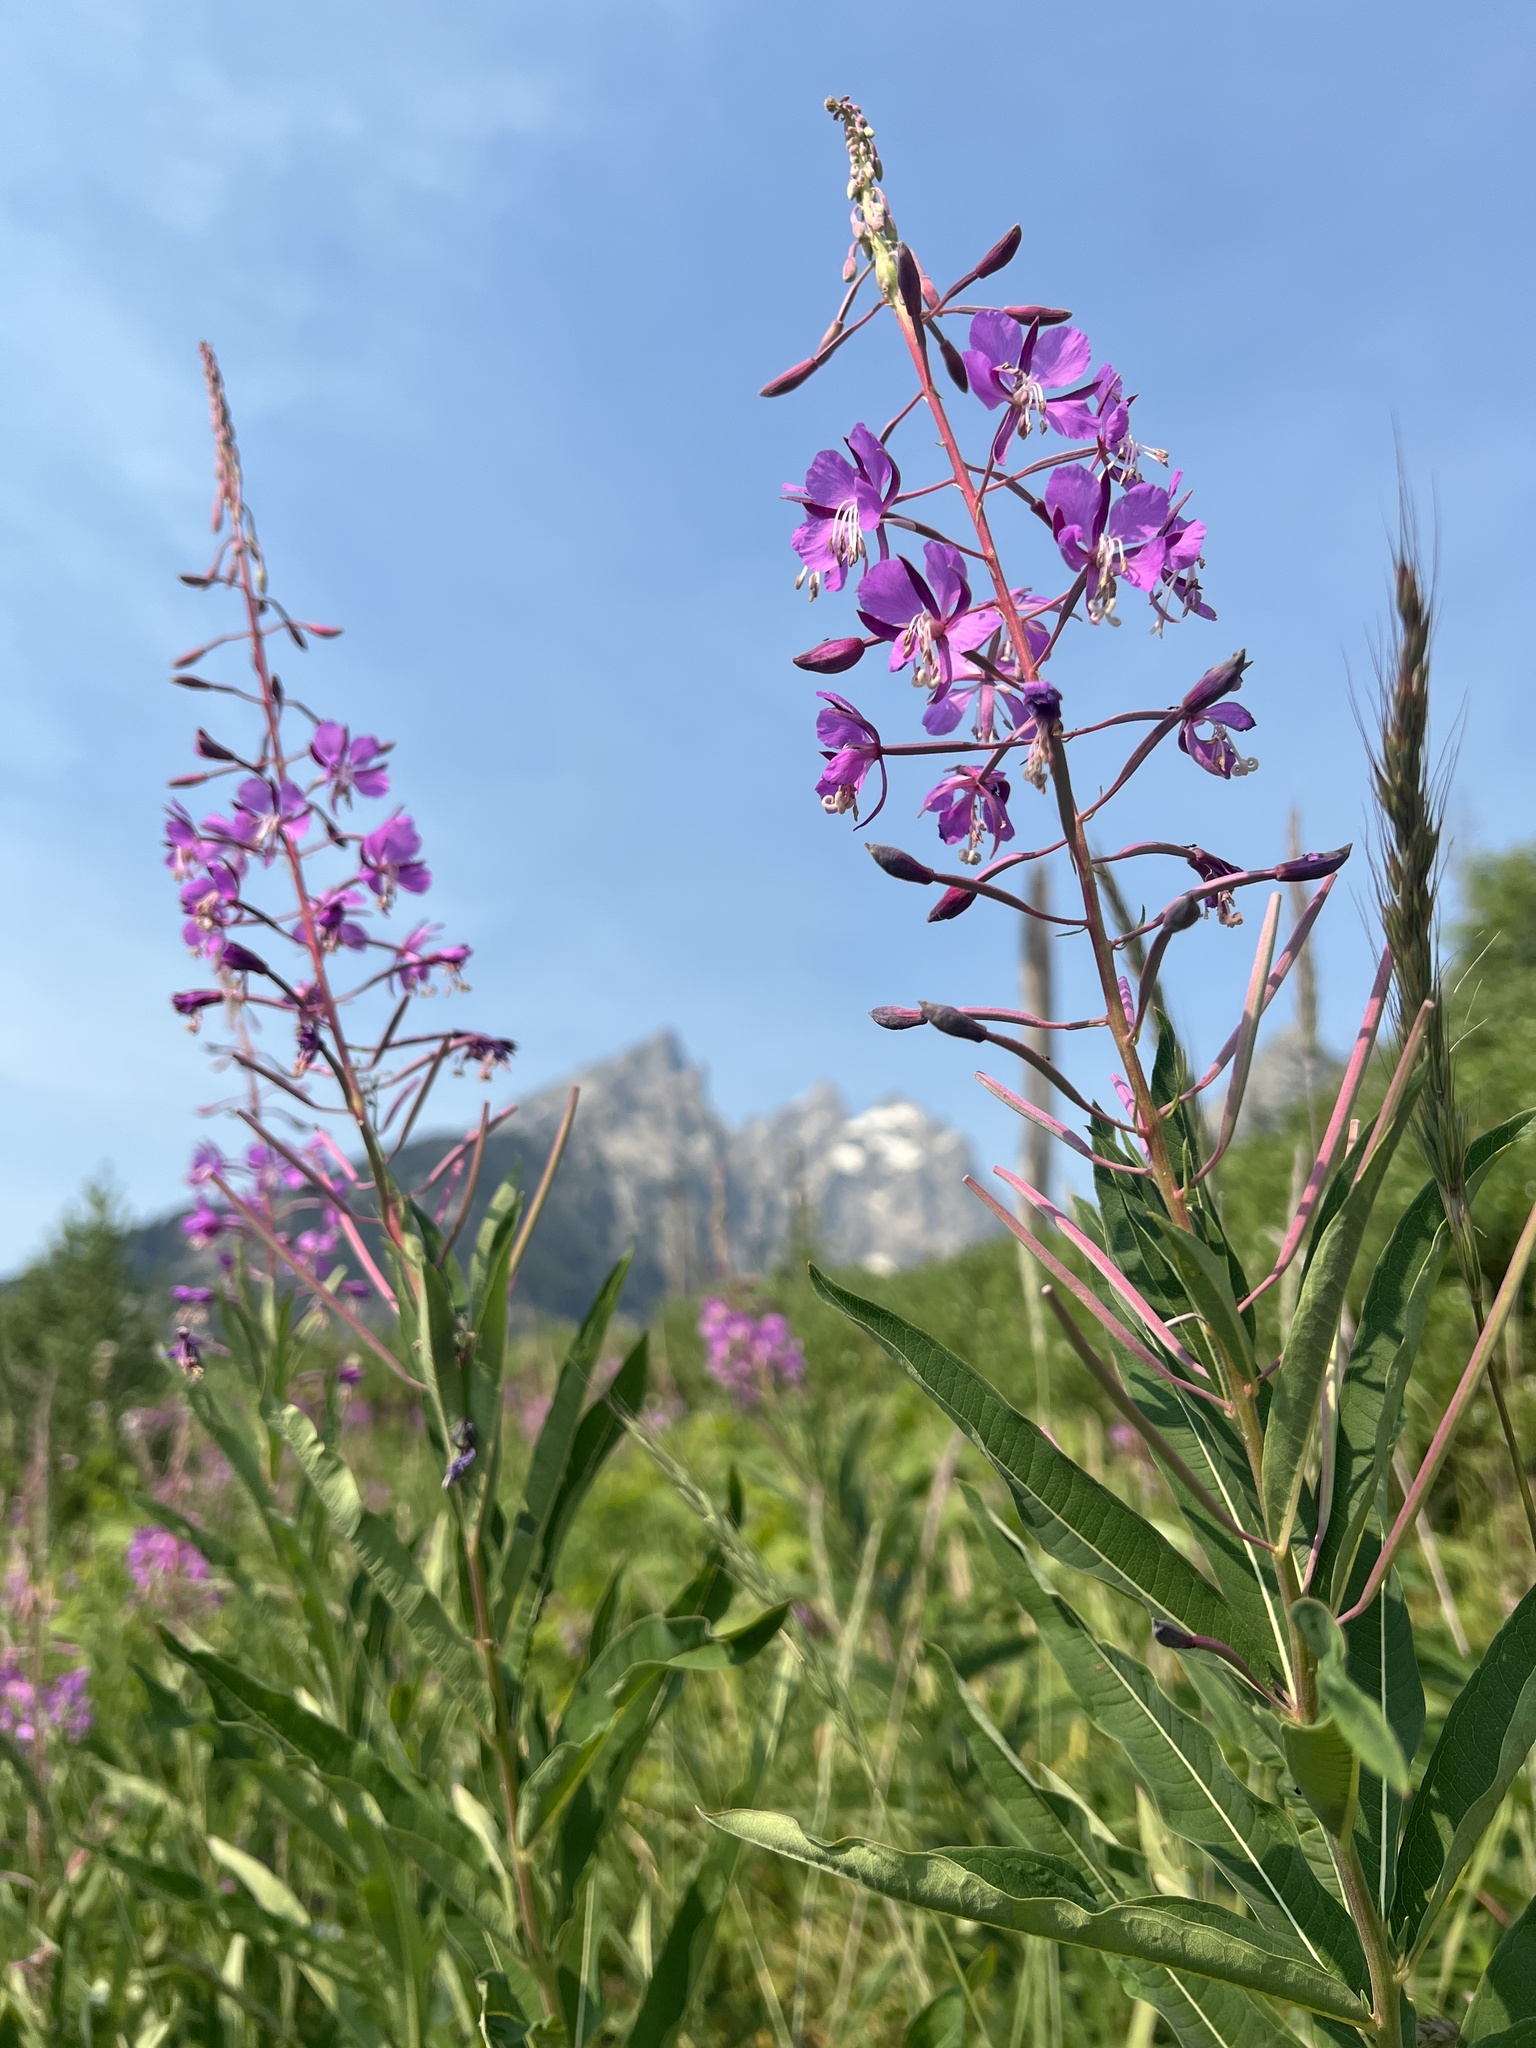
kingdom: Plantae
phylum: Tracheophyta
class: Magnoliopsida
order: Myrtales
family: Onagraceae
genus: Chamaenerion
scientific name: Chamaenerion angustifolium
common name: Fireweed
